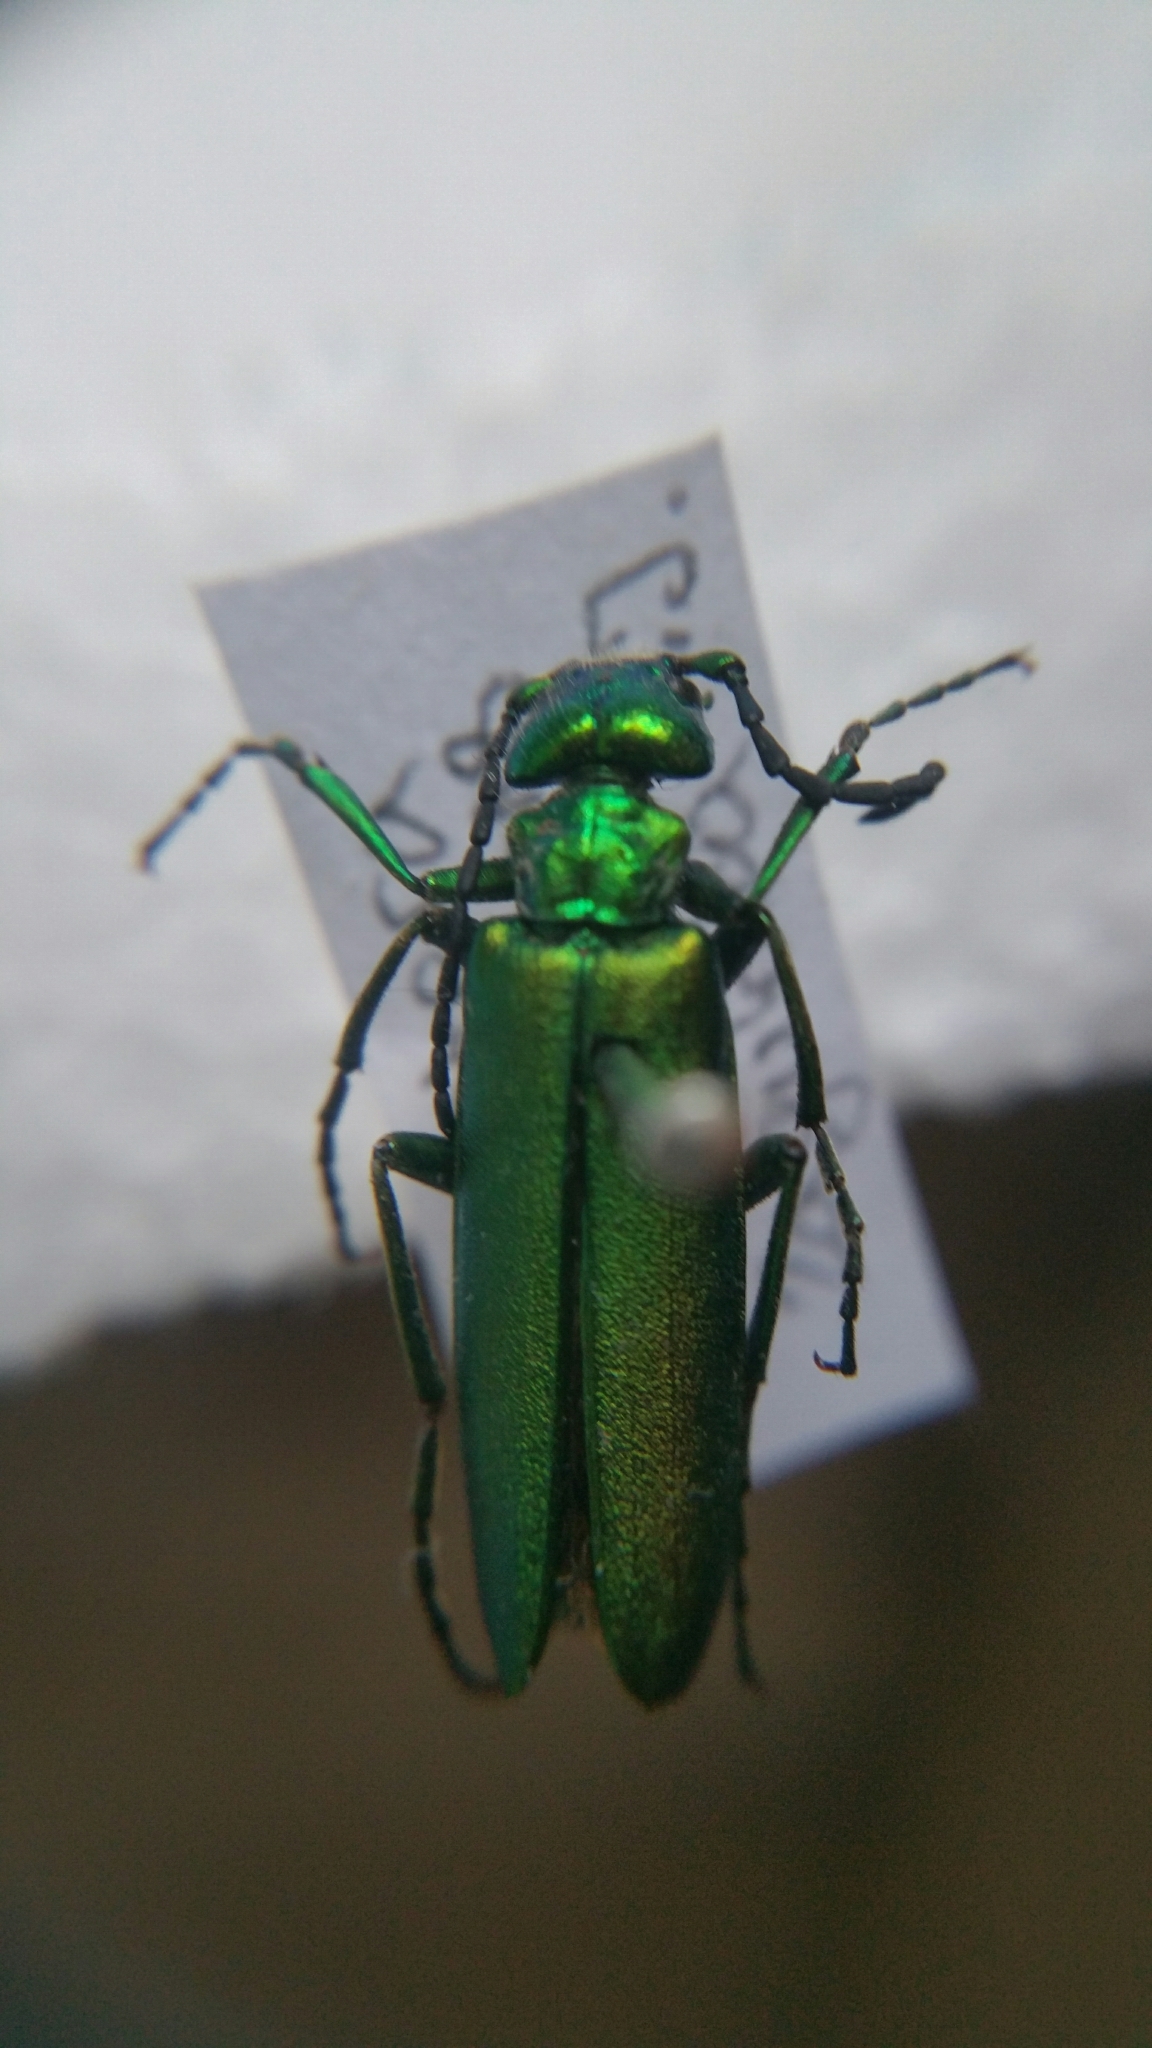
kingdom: Animalia
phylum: Arthropoda
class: Insecta
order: Coleoptera
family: Meloidae
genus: Lytta
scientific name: Lytta vesicatoria
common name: Spanish fly
